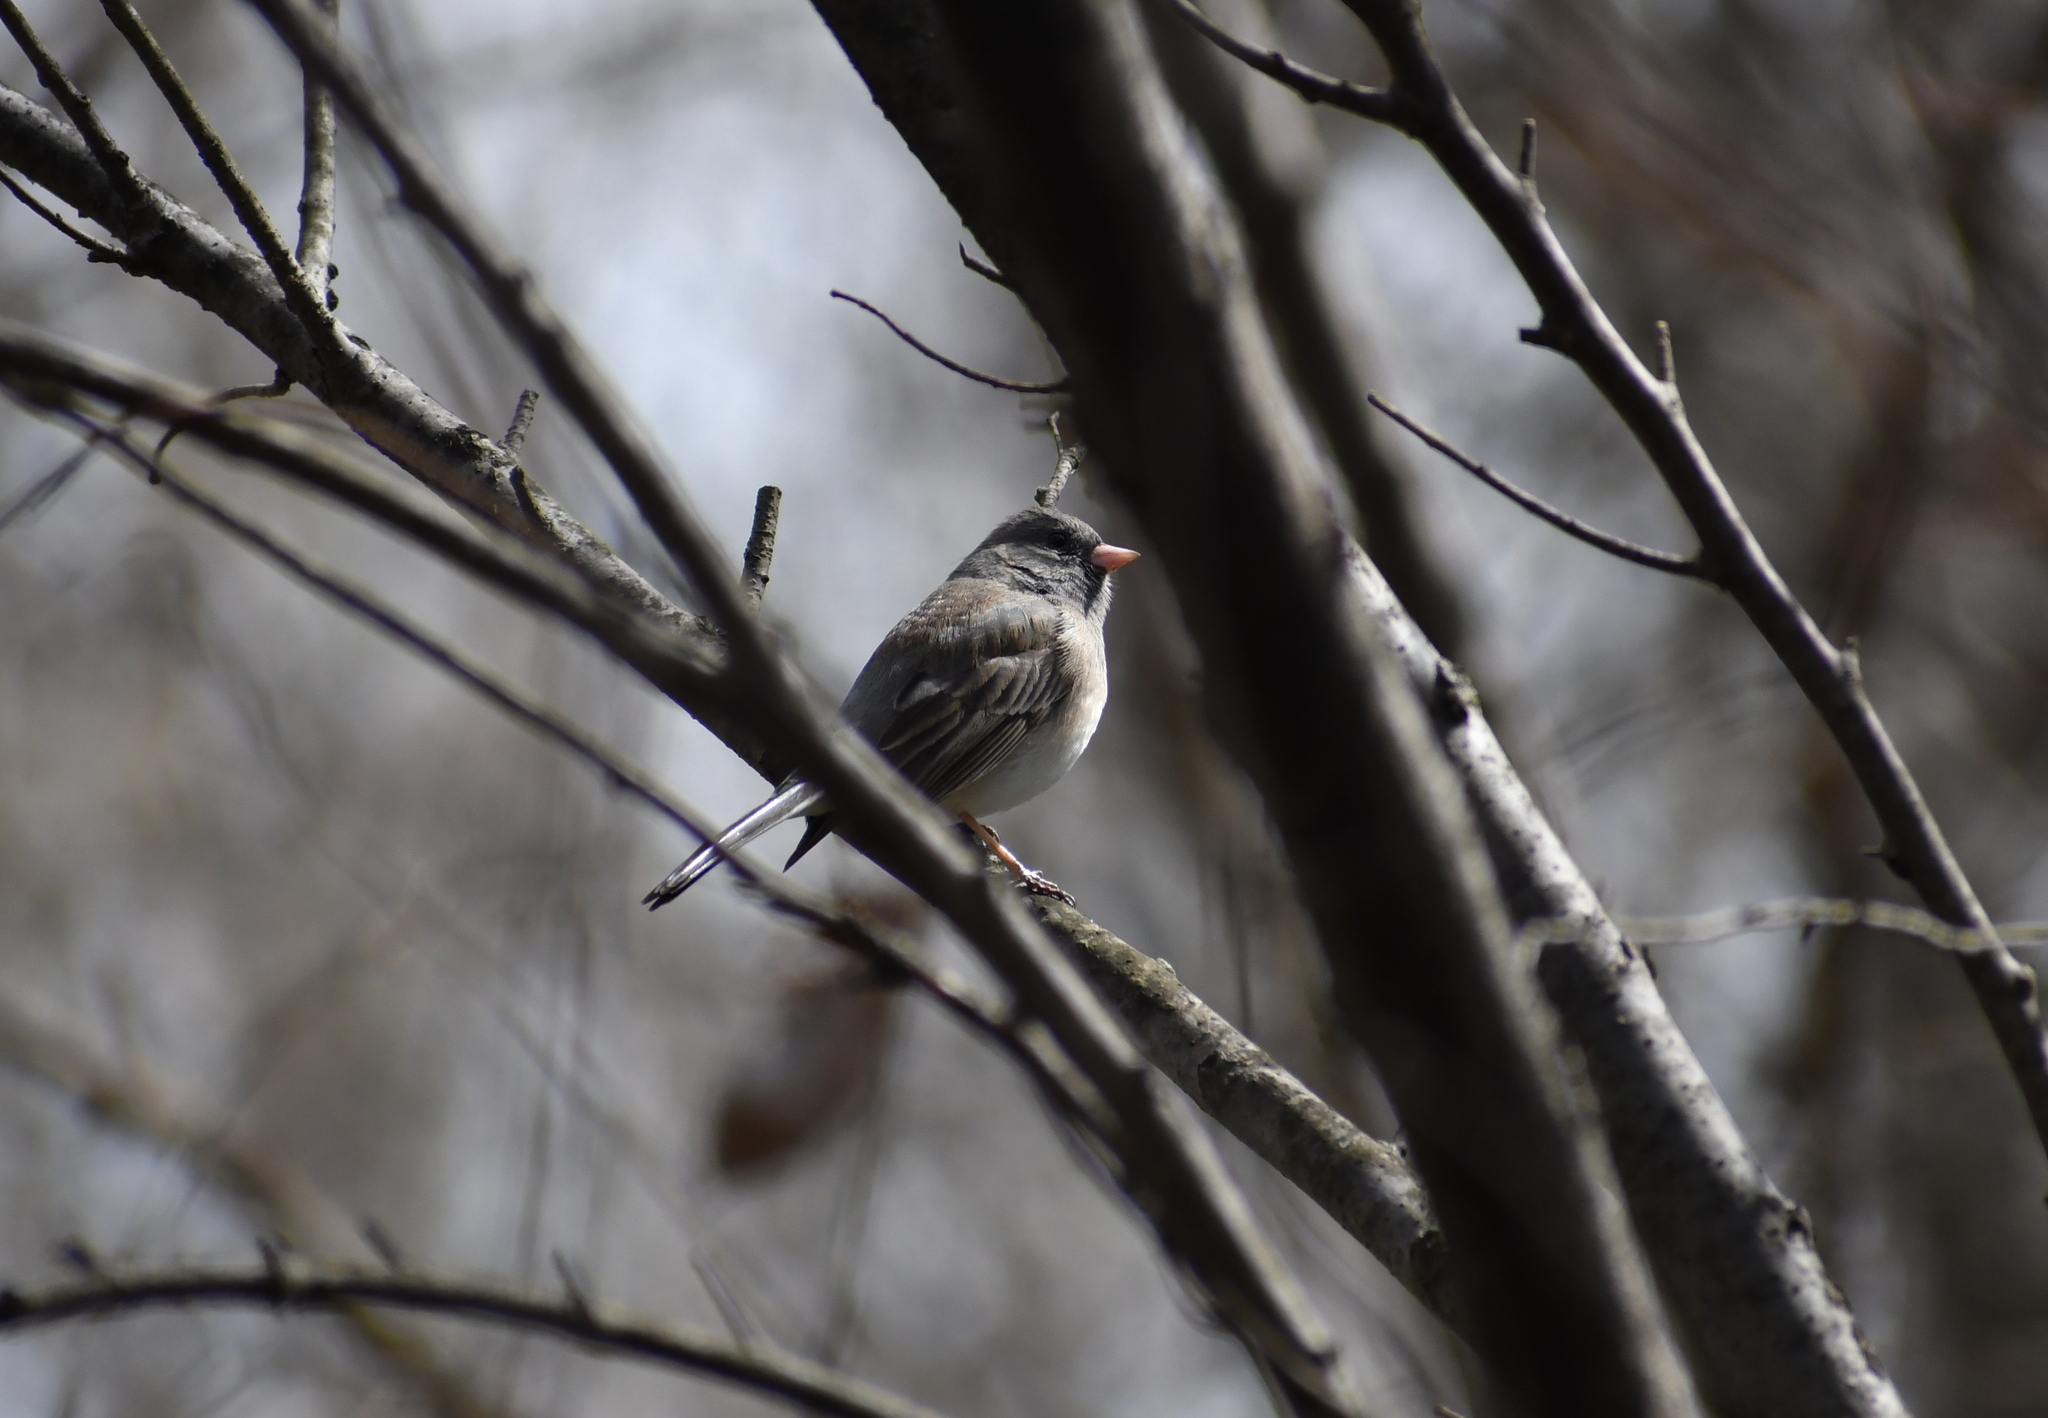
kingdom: Animalia
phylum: Chordata
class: Aves
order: Passeriformes
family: Passerellidae
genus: Junco
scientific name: Junco hyemalis
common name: Dark-eyed junco
